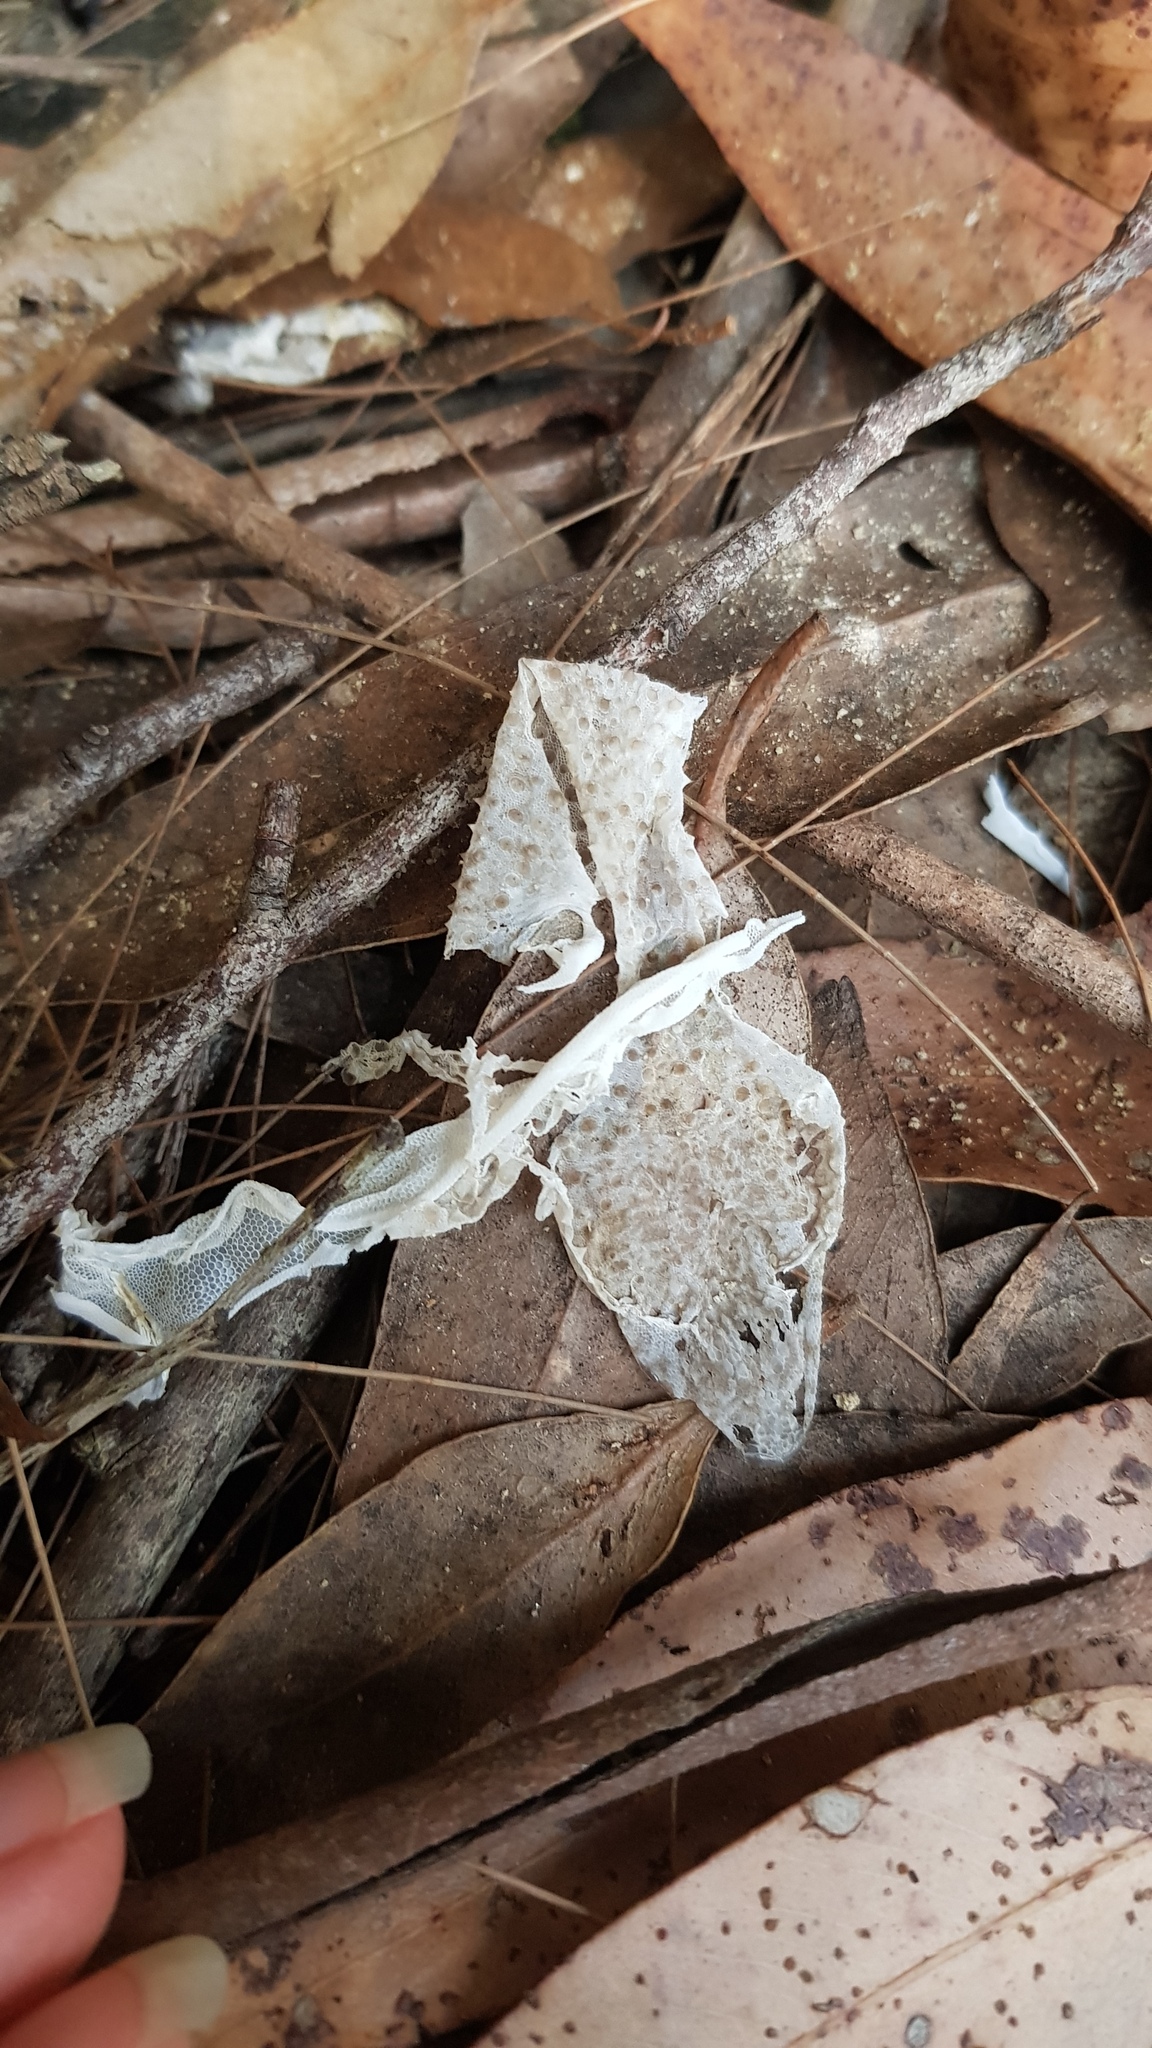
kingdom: Animalia
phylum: Chordata
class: Squamata
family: Carphodactylidae
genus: Phyllurus
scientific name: Phyllurus platurus
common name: Broad-tailed gecko
